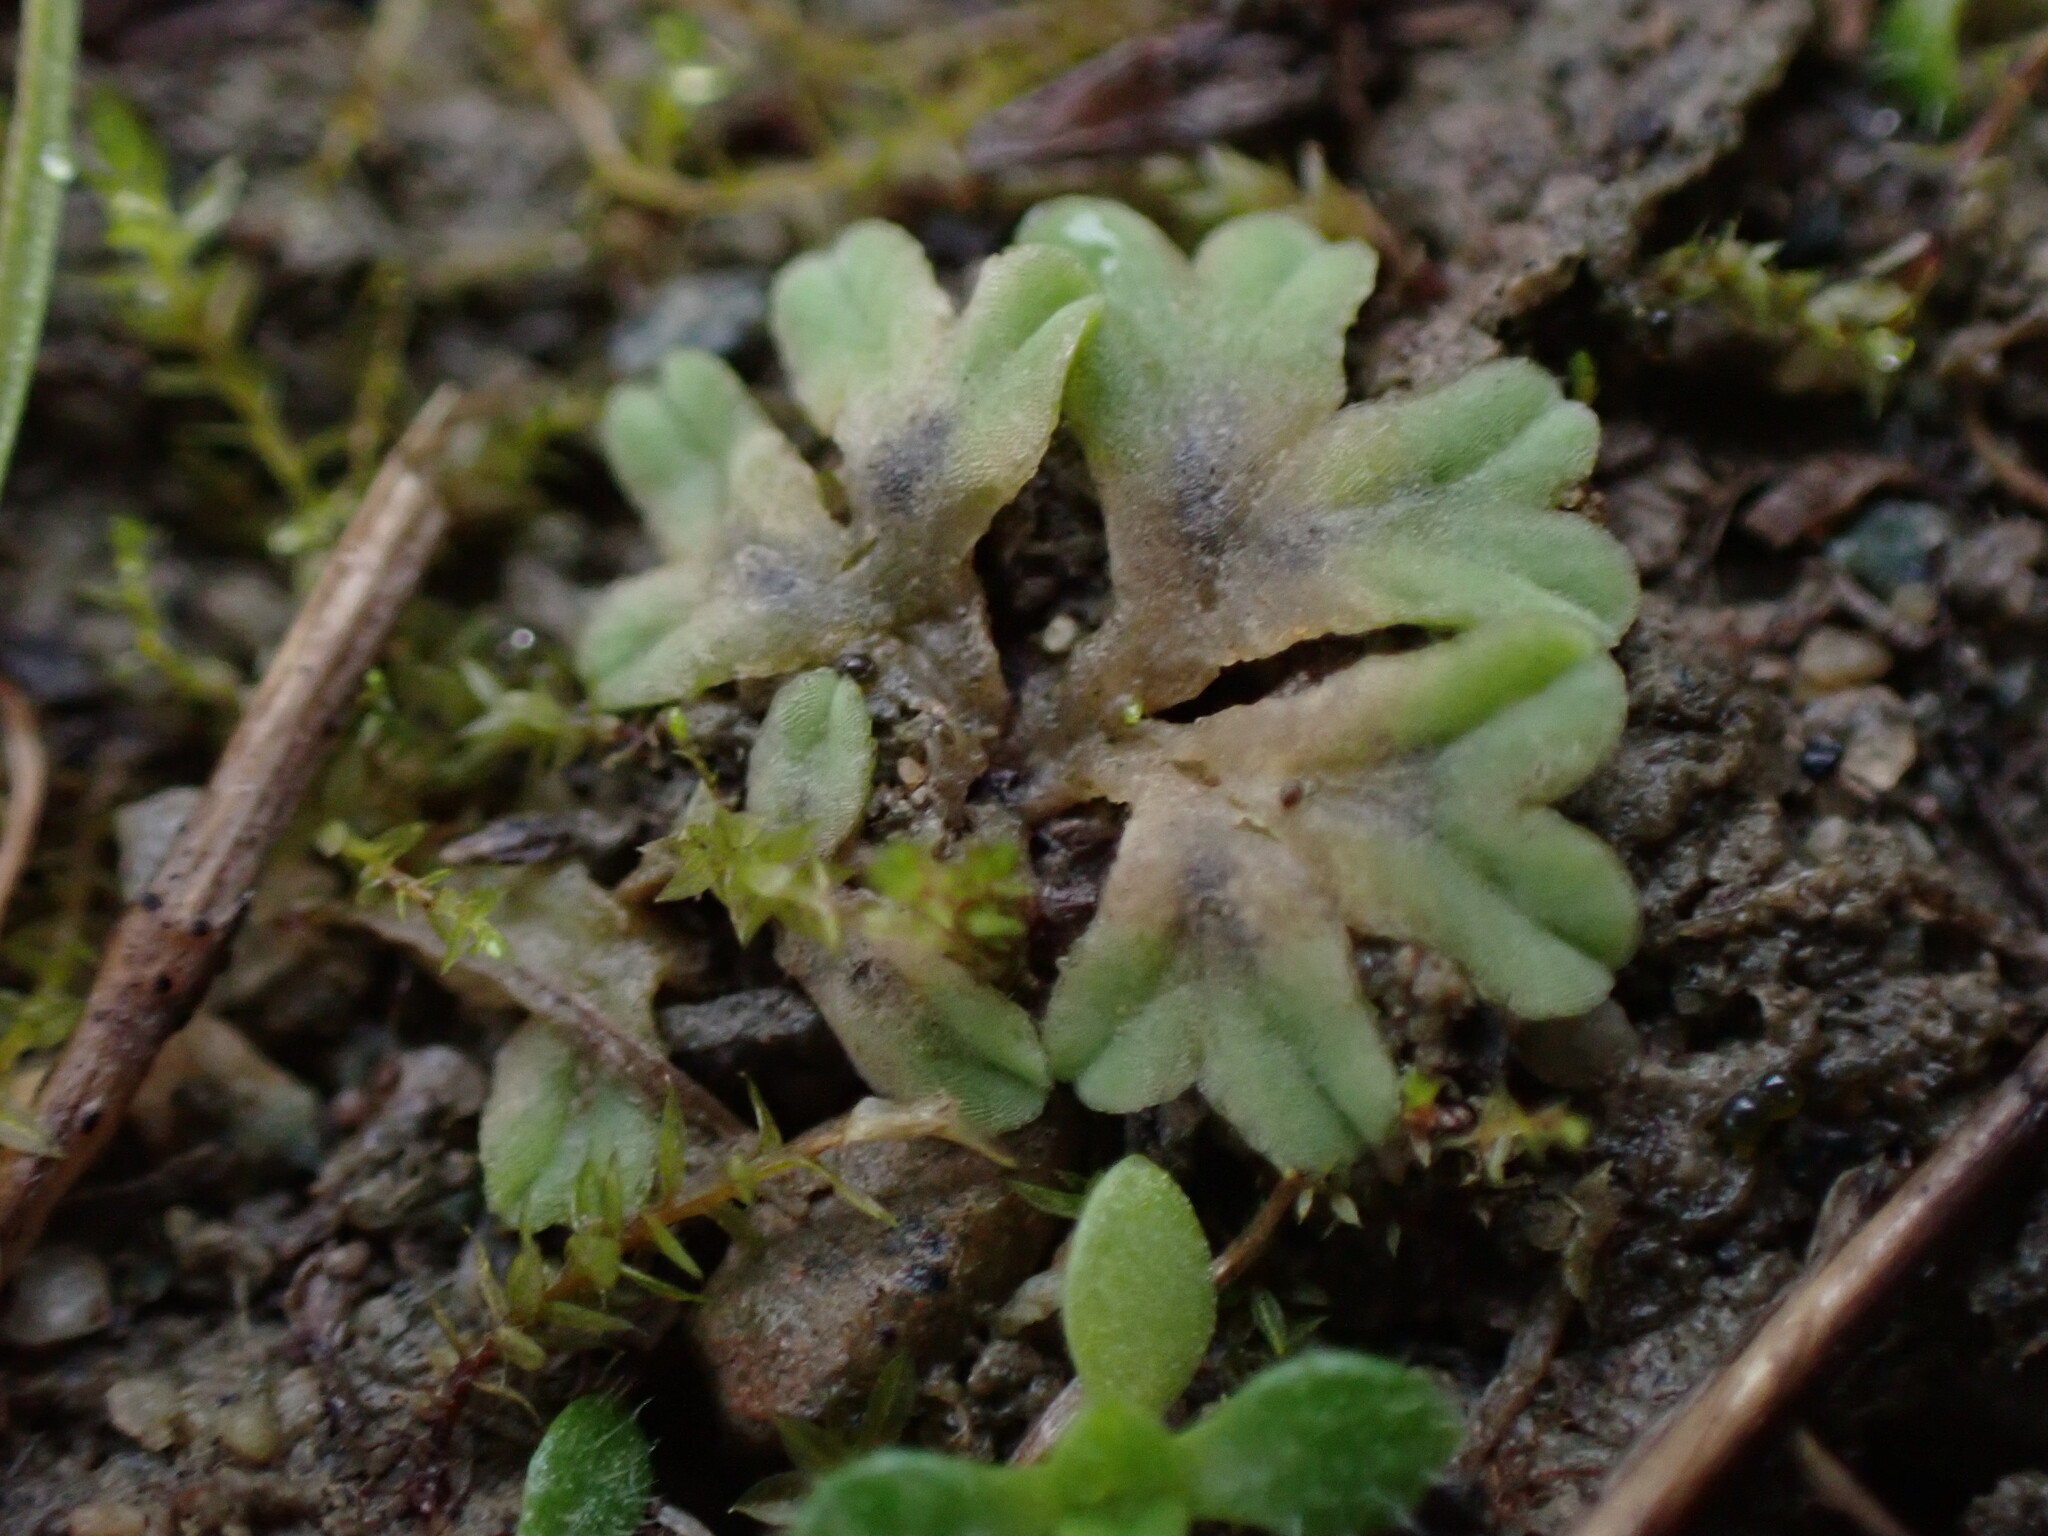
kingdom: Plantae
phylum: Marchantiophyta
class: Marchantiopsida
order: Marchantiales
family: Ricciaceae
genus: Riccia
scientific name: Riccia sorocarpa
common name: Common crystalwort
